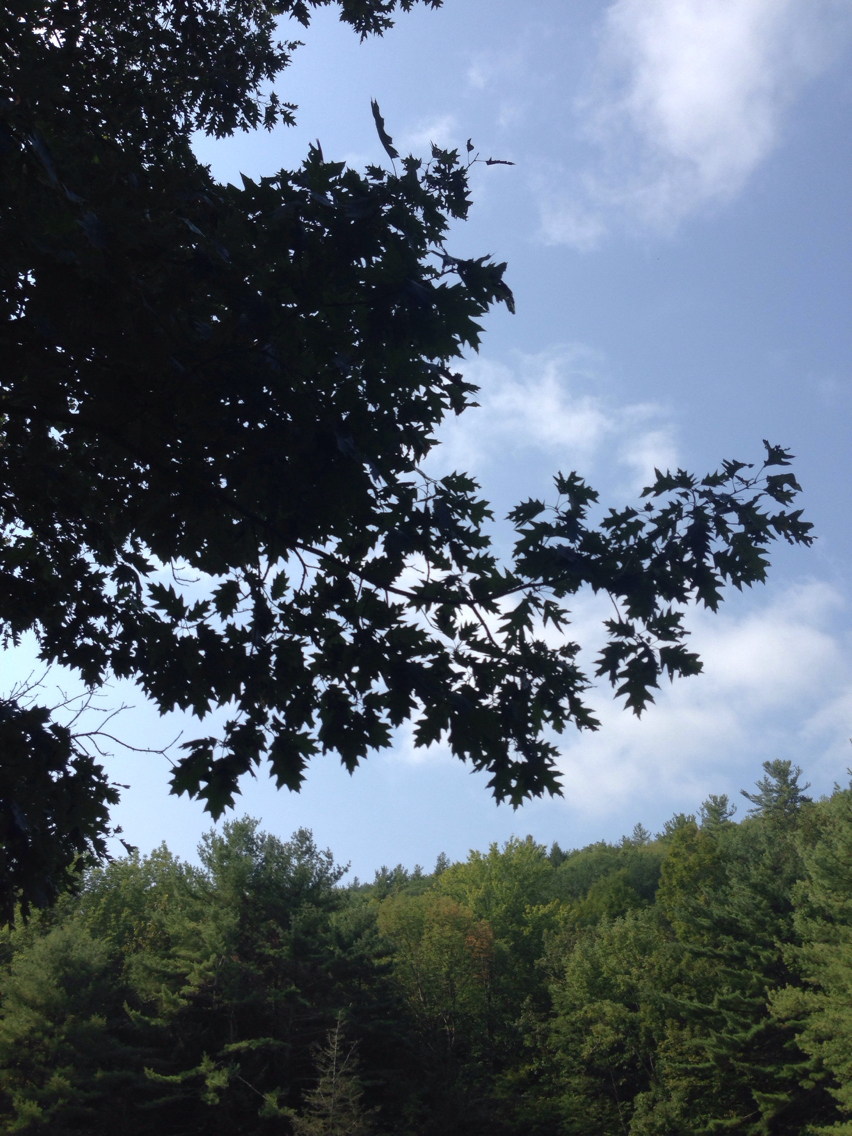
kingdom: Plantae
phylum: Tracheophyta
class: Magnoliopsida
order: Fagales
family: Fagaceae
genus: Quercus
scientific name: Quercus rubra
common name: Red oak
